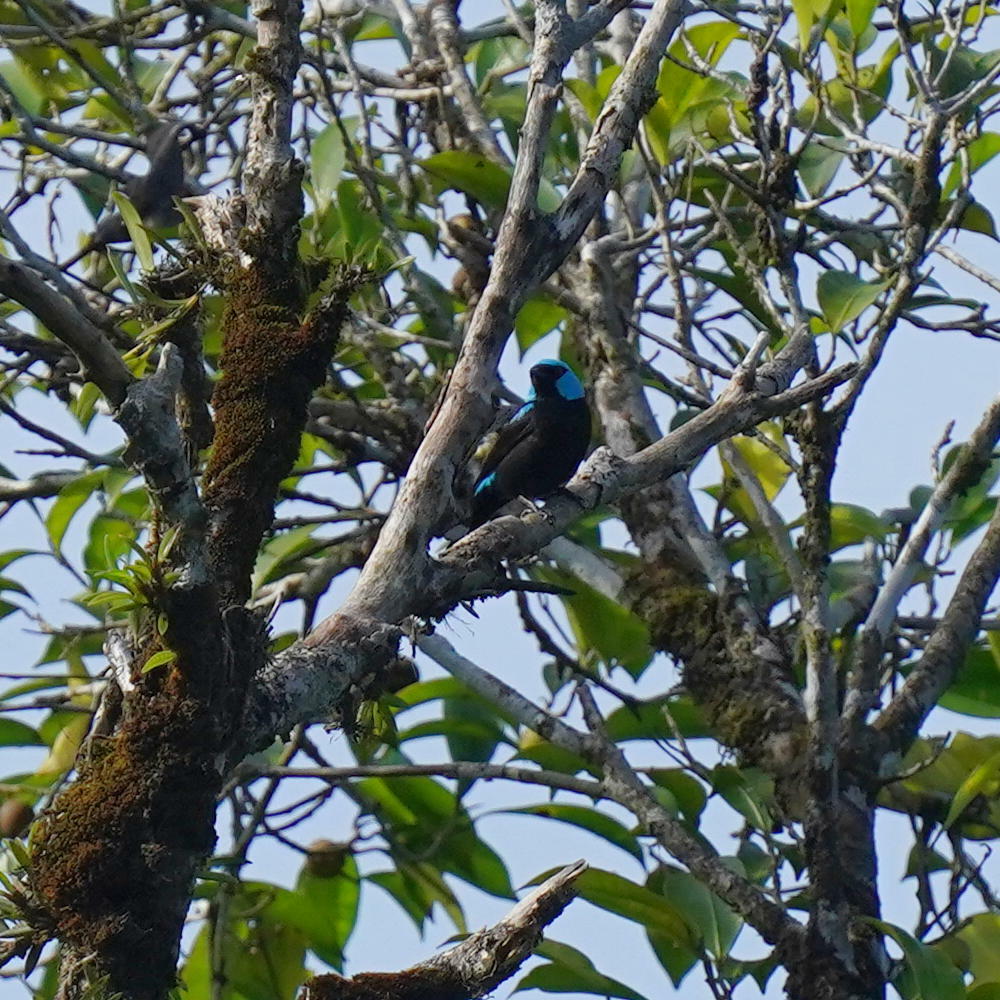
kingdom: Animalia
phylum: Chordata
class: Aves
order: Passeriformes
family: Thraupidae
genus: Dacnis
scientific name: Dacnis venusta
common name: Scarlet-thighed dacnis
